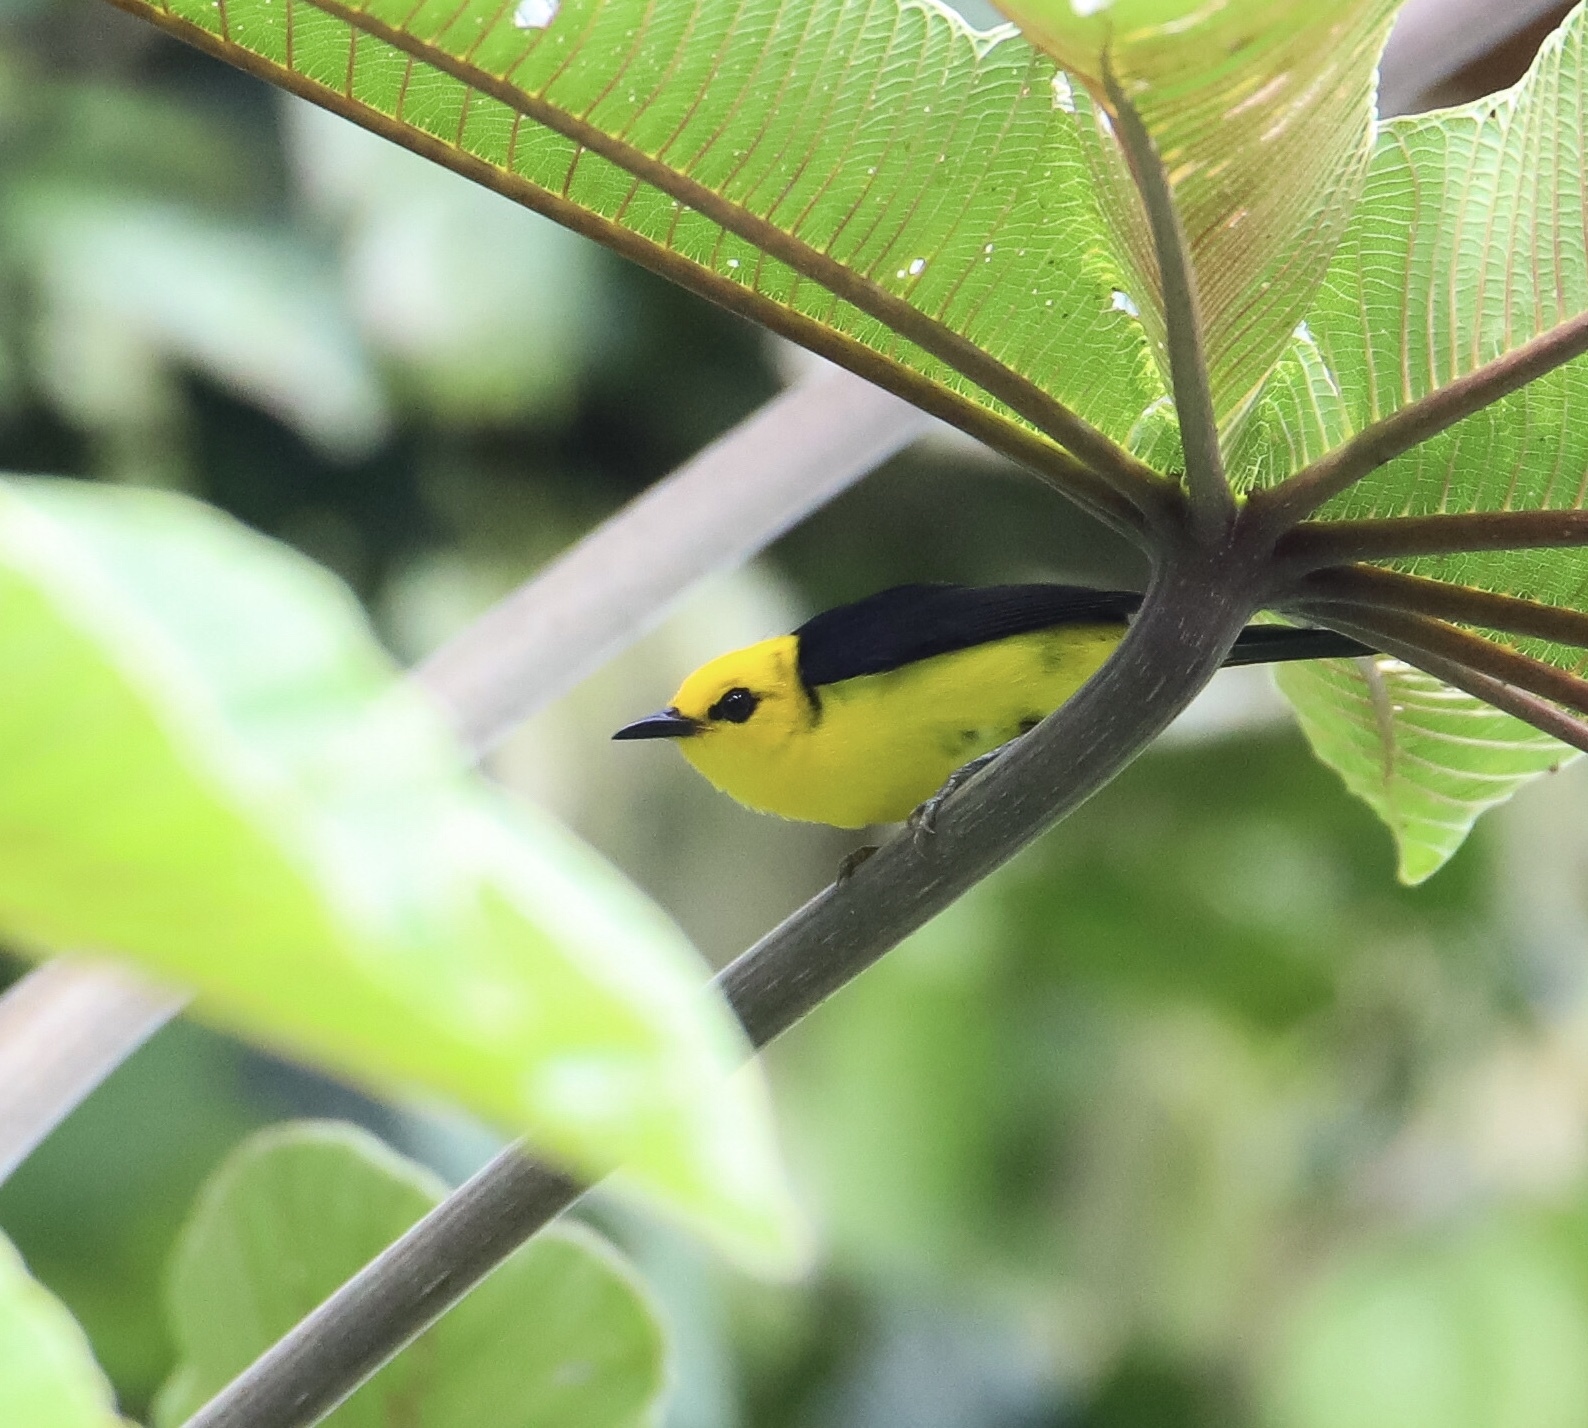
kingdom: Animalia
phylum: Chordata
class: Aves
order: Passeriformes
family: Thraupidae
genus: Chrysothlypis
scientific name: Chrysothlypis chrysomelas
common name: Black-and-yellow tanager
